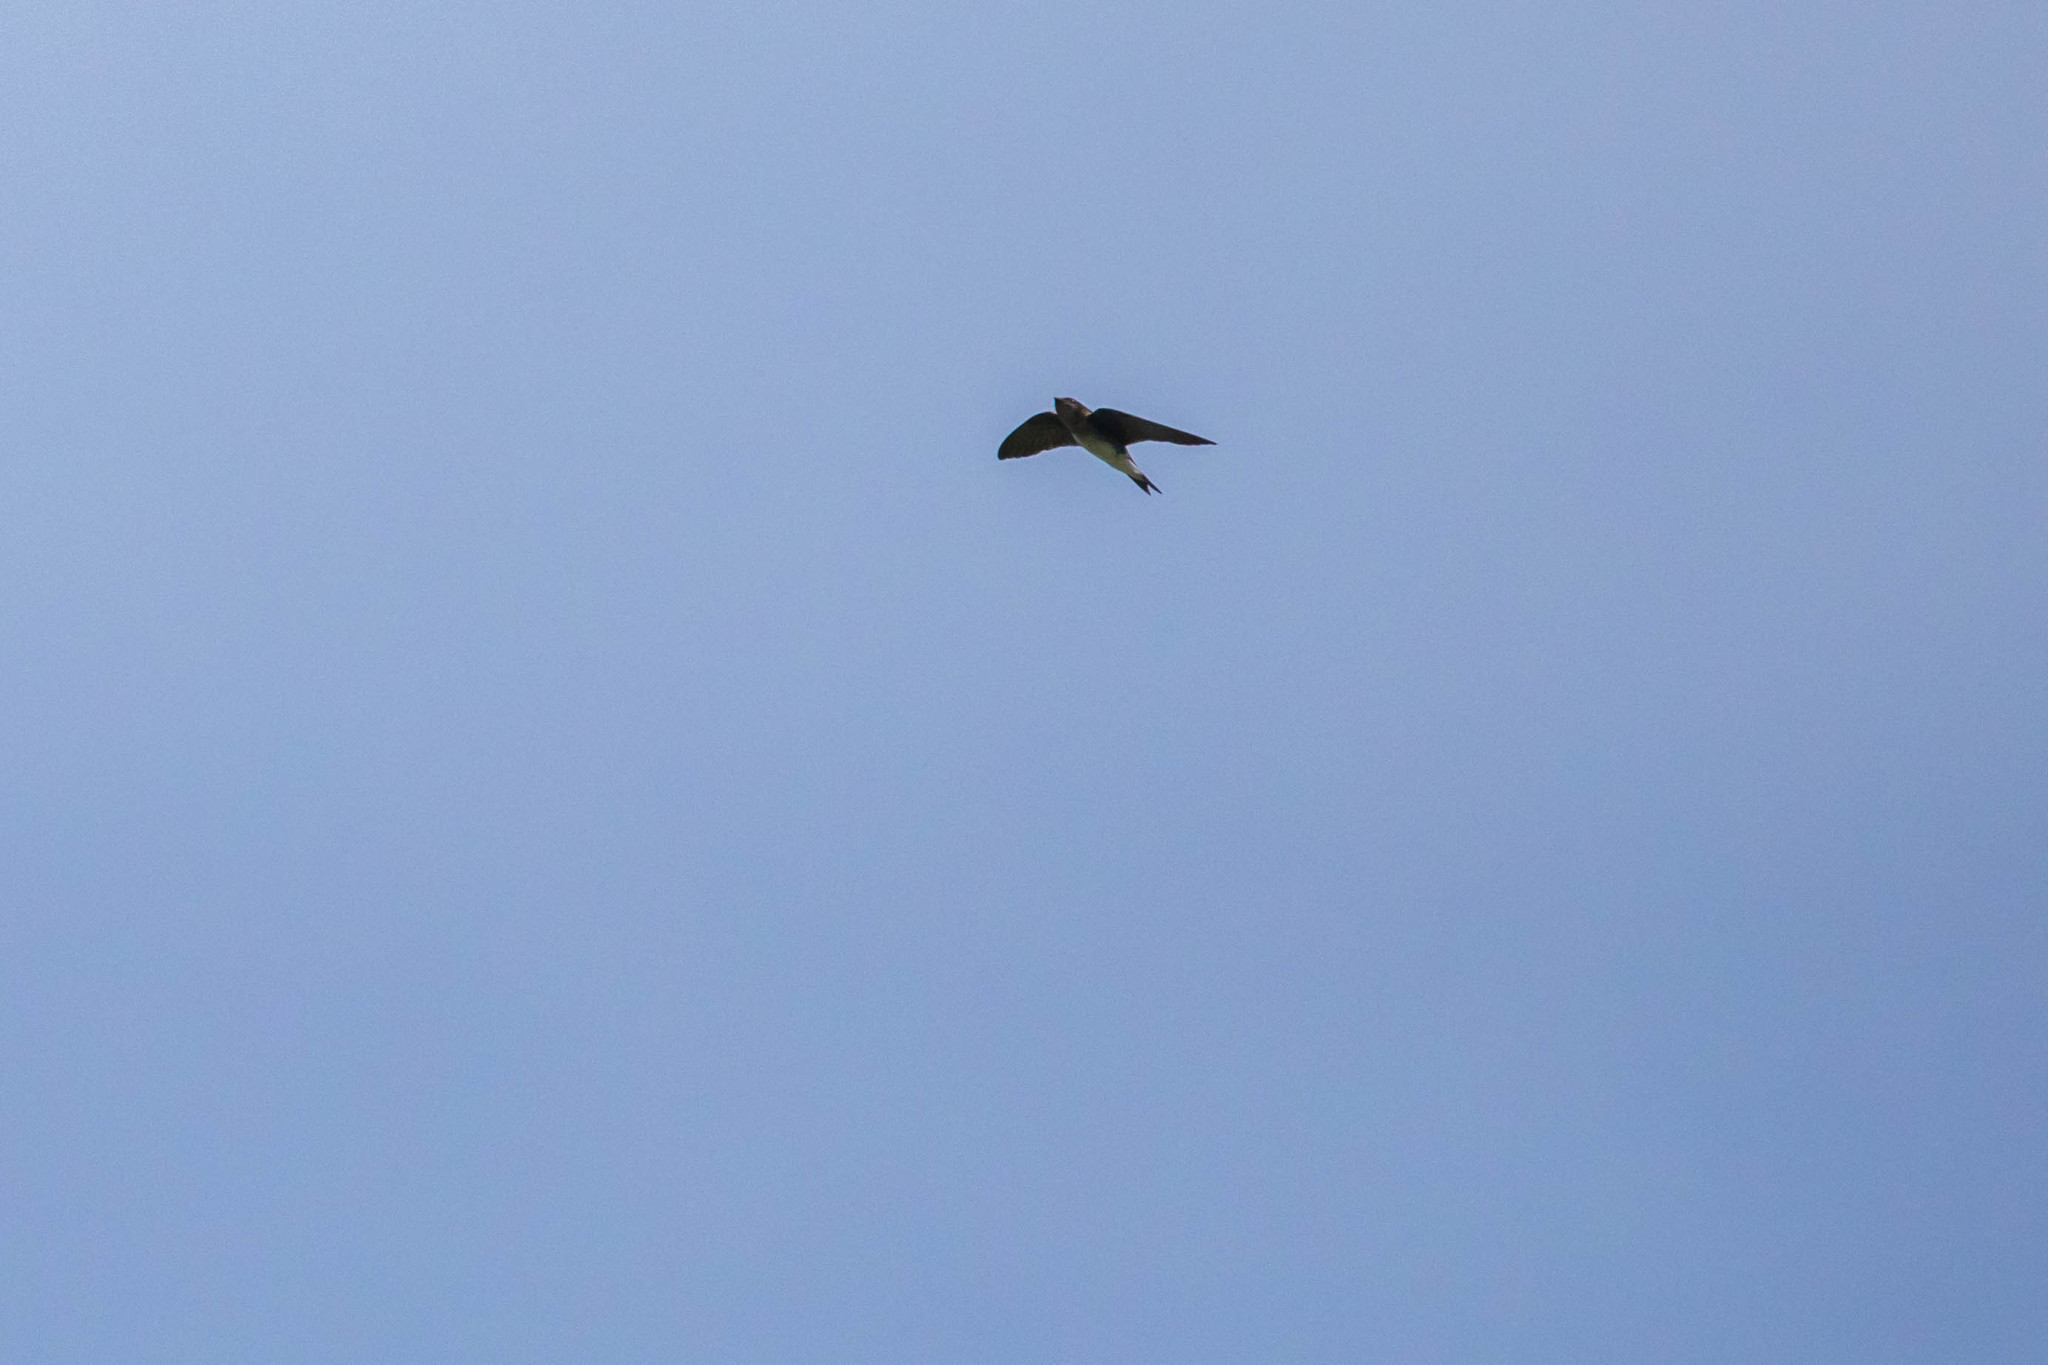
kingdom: Animalia
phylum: Chordata
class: Aves
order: Passeriformes
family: Hirundinidae
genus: Progne
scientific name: Progne chalybea
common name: Grey-breasted martin
